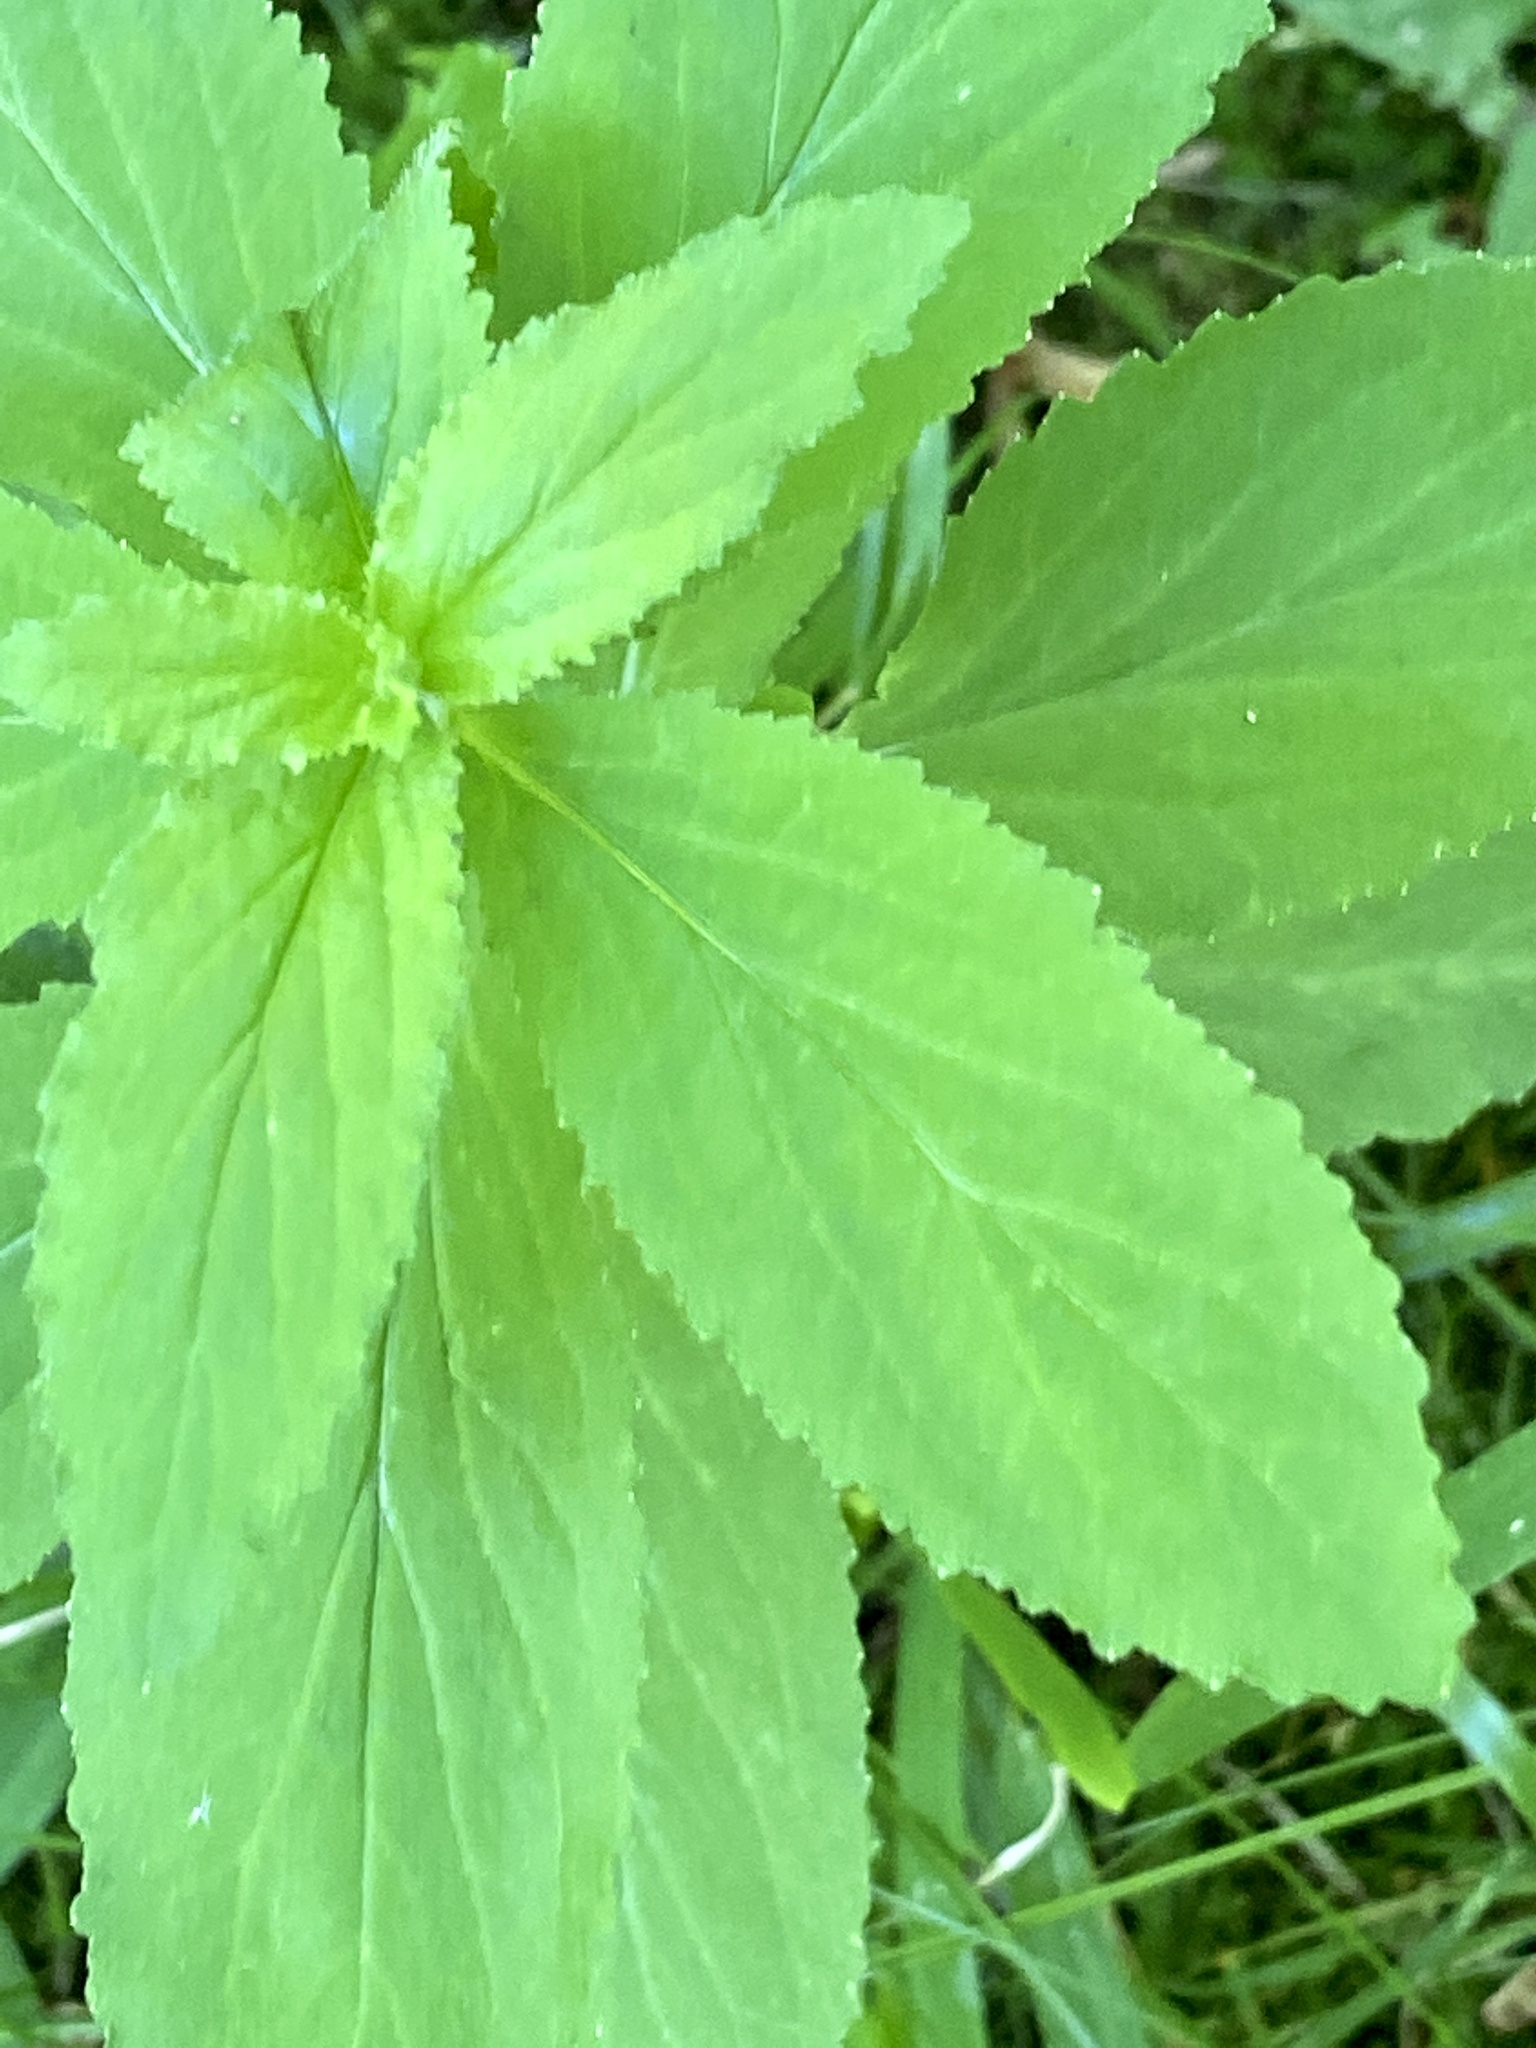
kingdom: Plantae
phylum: Tracheophyta
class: Magnoliopsida
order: Asterales
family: Campanulaceae
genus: Lobelia
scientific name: Lobelia inflata
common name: Indian tobacco
